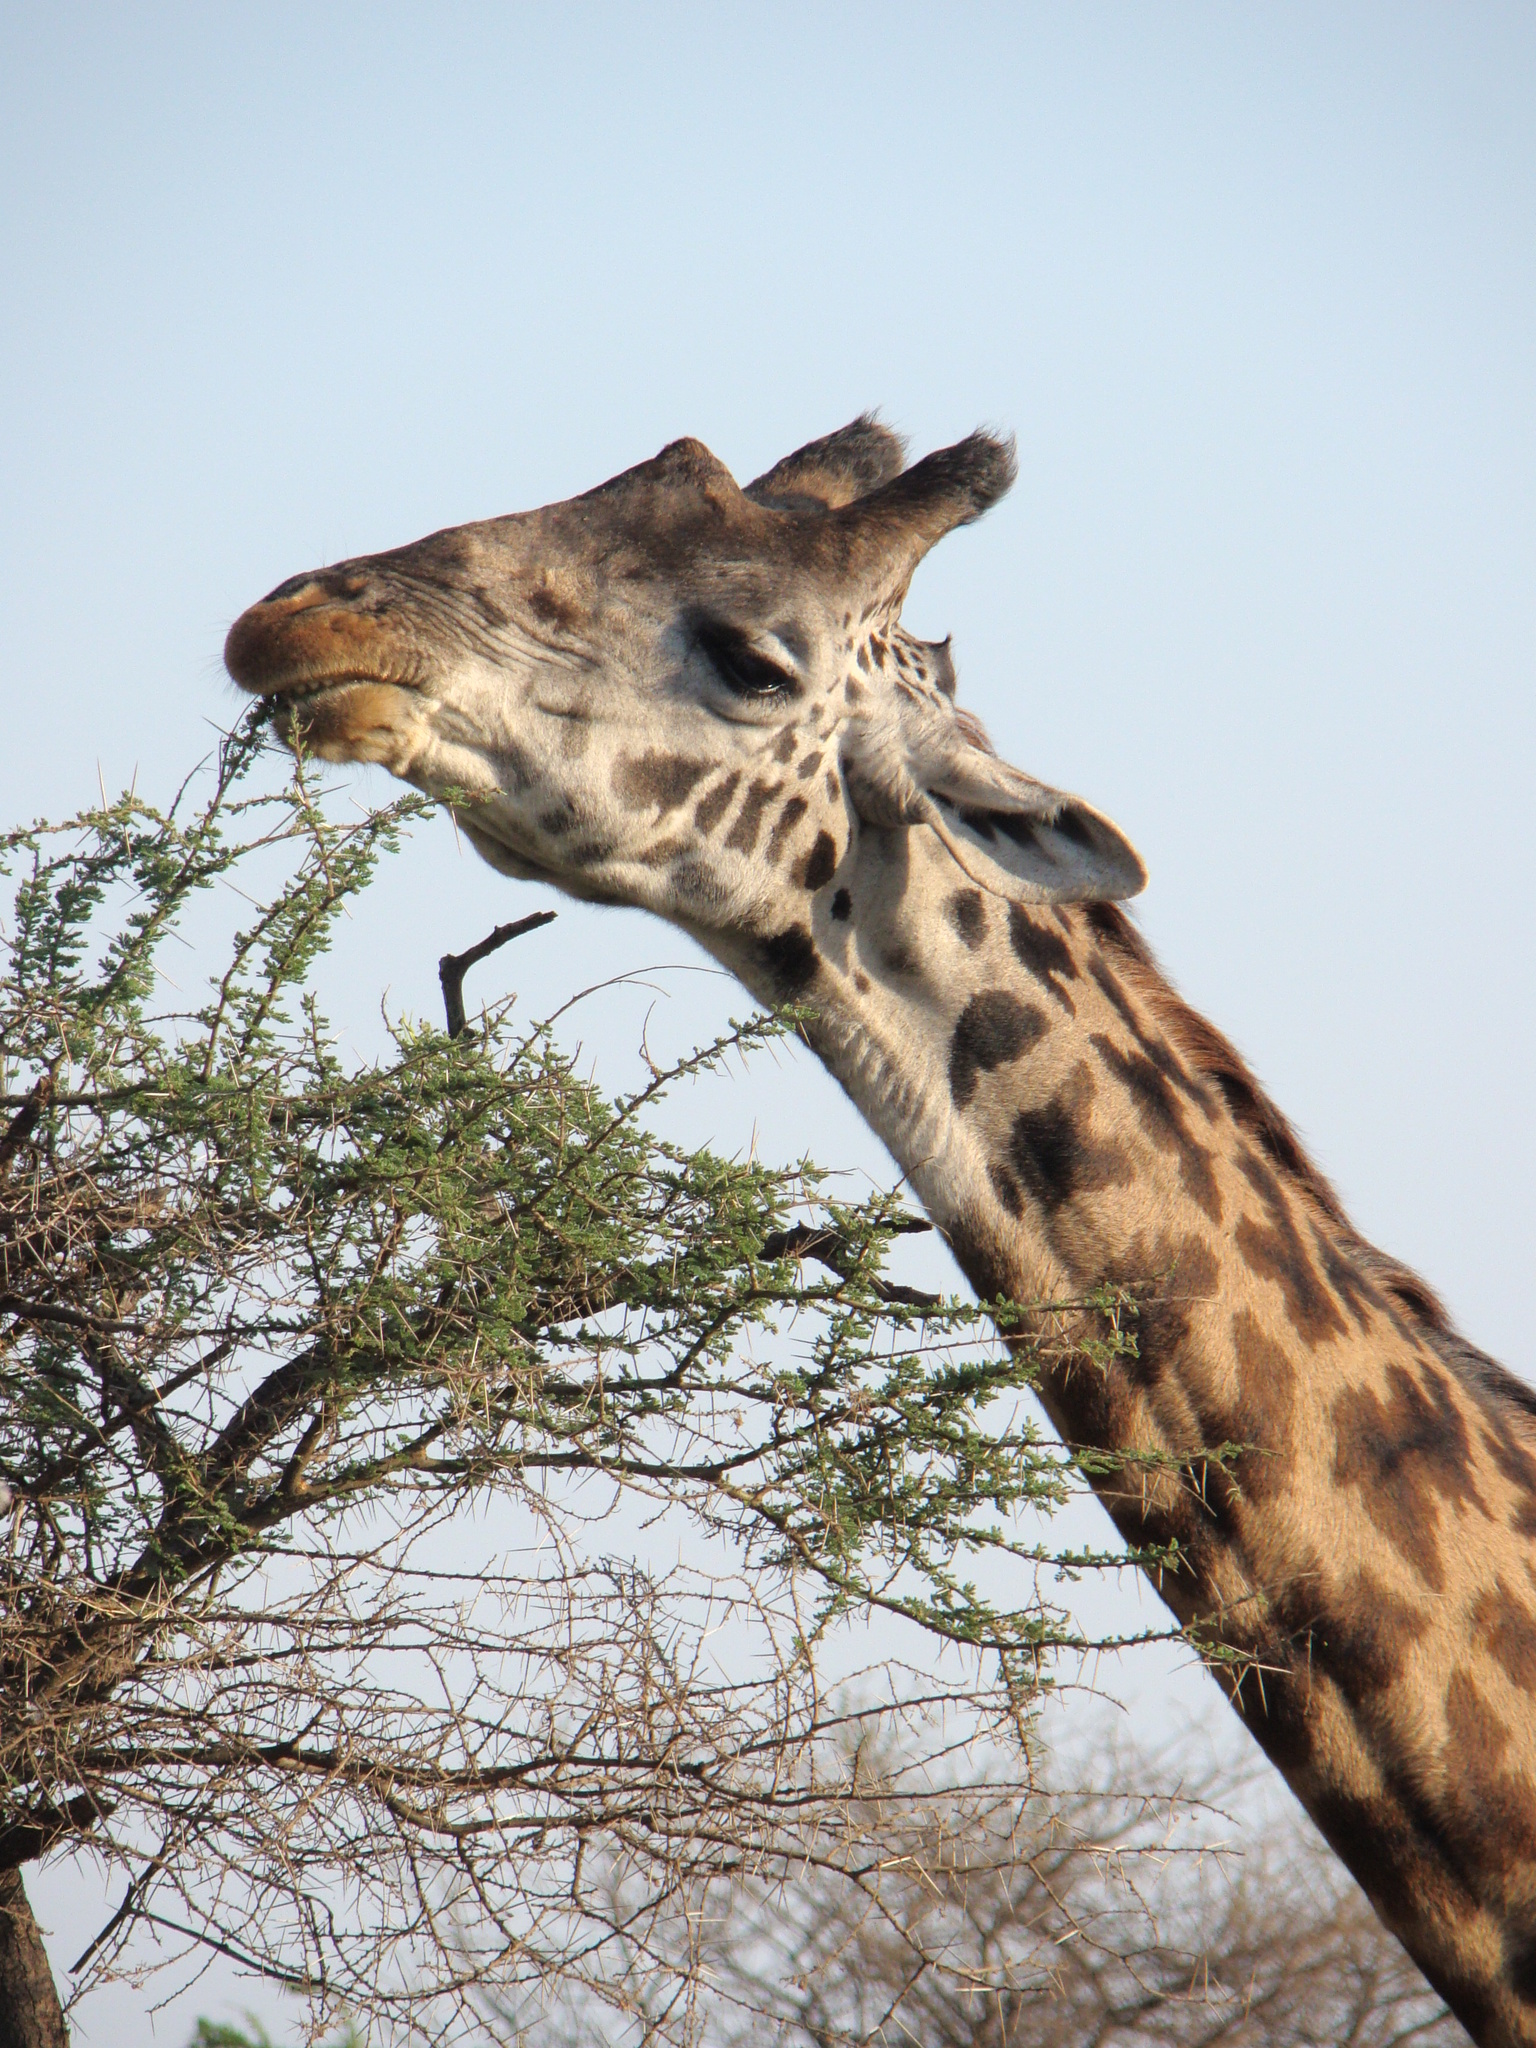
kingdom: Animalia
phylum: Chordata
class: Mammalia
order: Artiodactyla
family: Giraffidae
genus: Giraffa
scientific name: Giraffa tippelskirchi
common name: Masai giraffe
